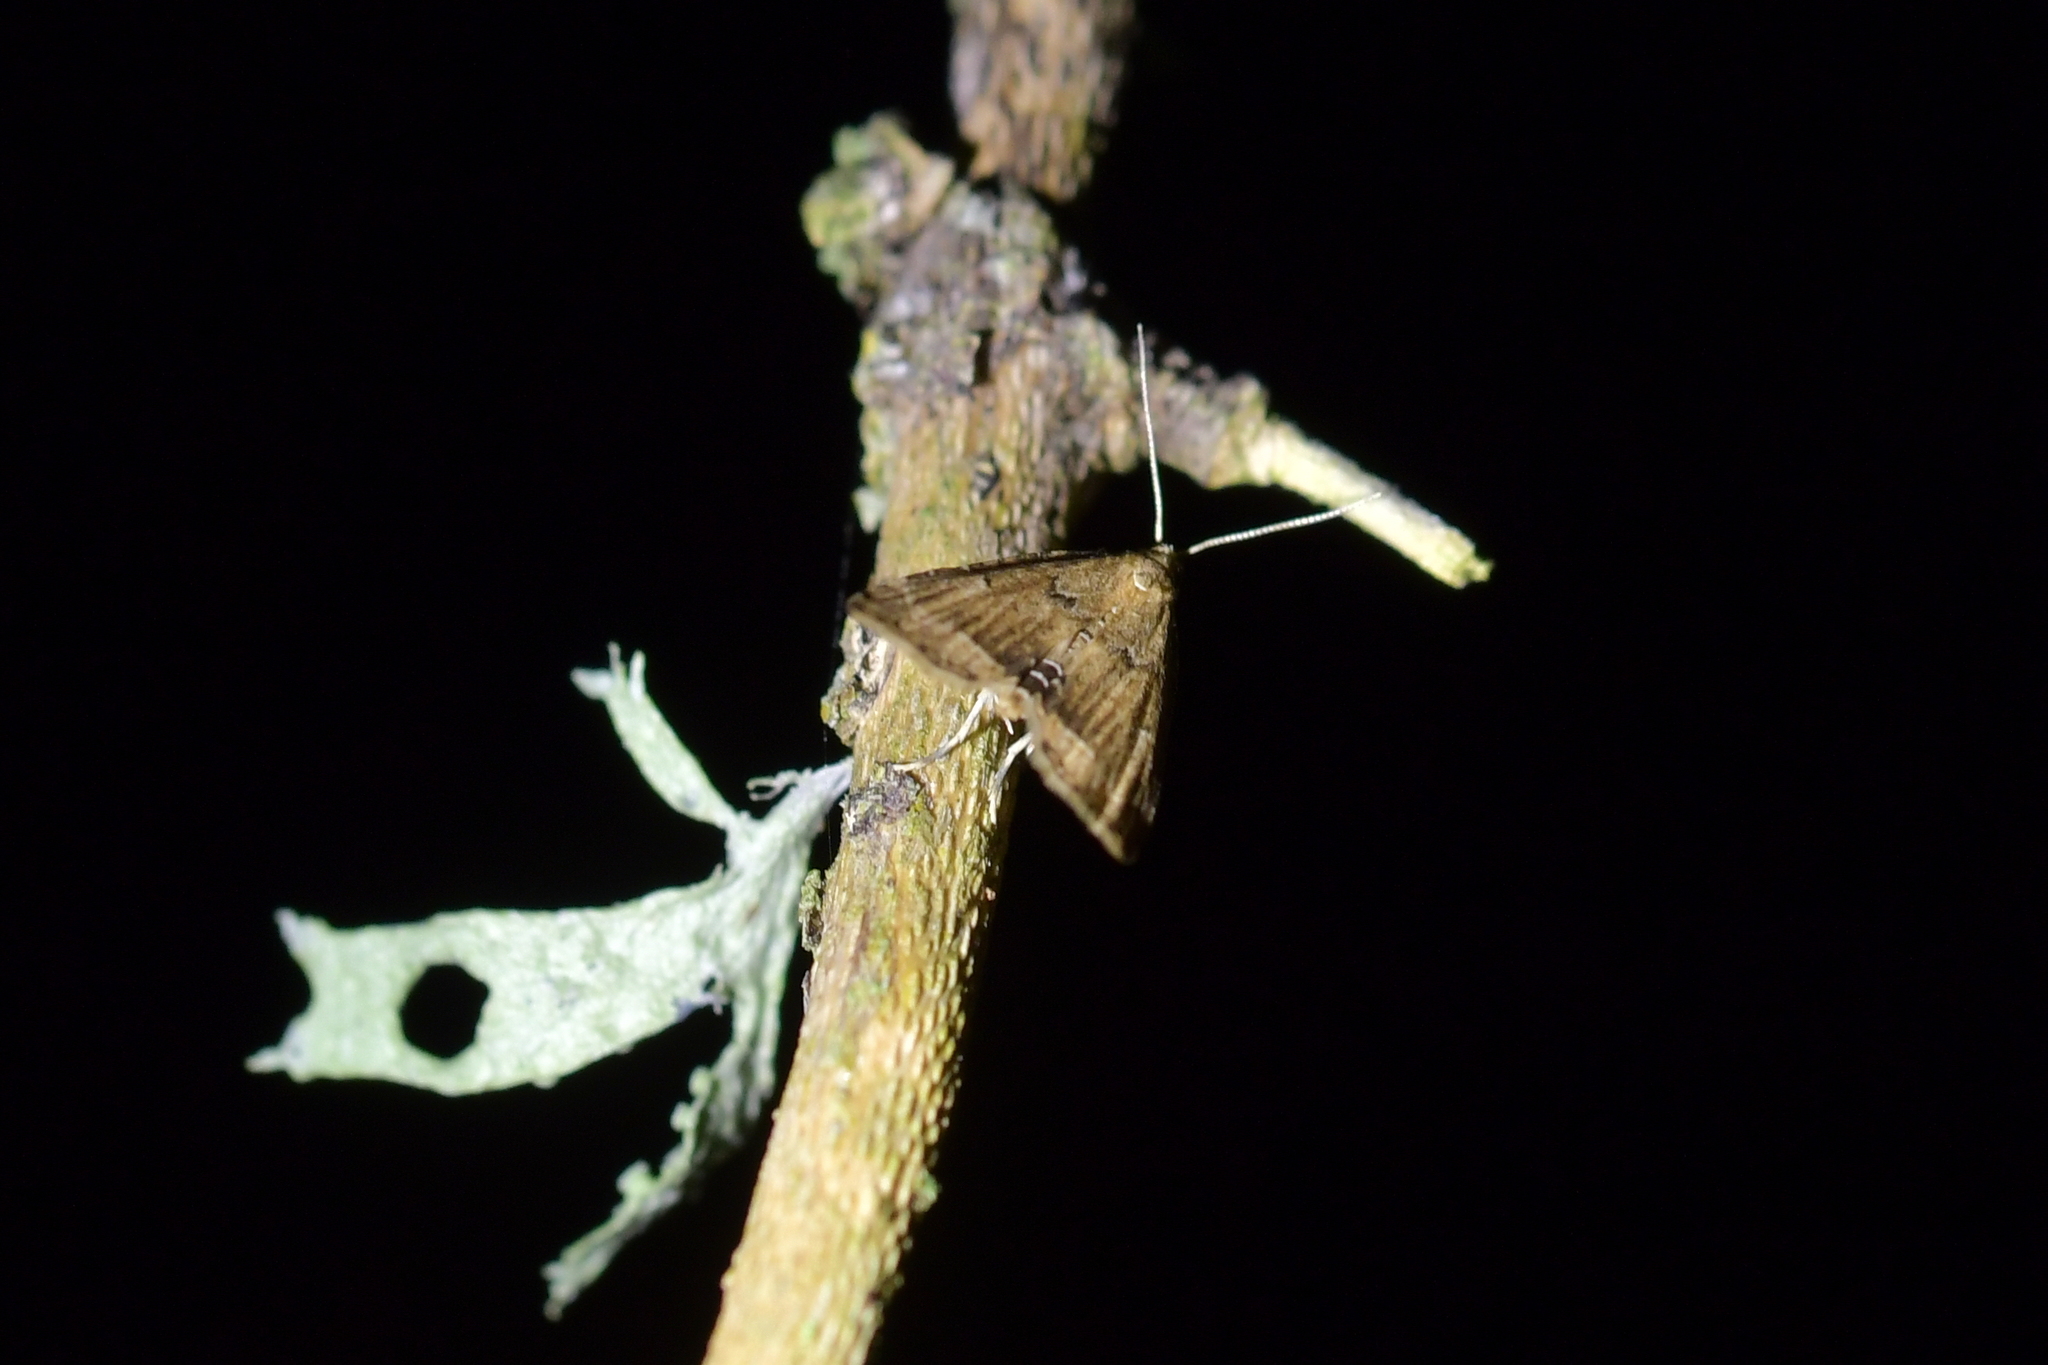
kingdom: Animalia
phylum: Arthropoda
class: Insecta
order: Lepidoptera
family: Crambidae
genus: Diplopseustis
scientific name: Diplopseustis perieresalis
